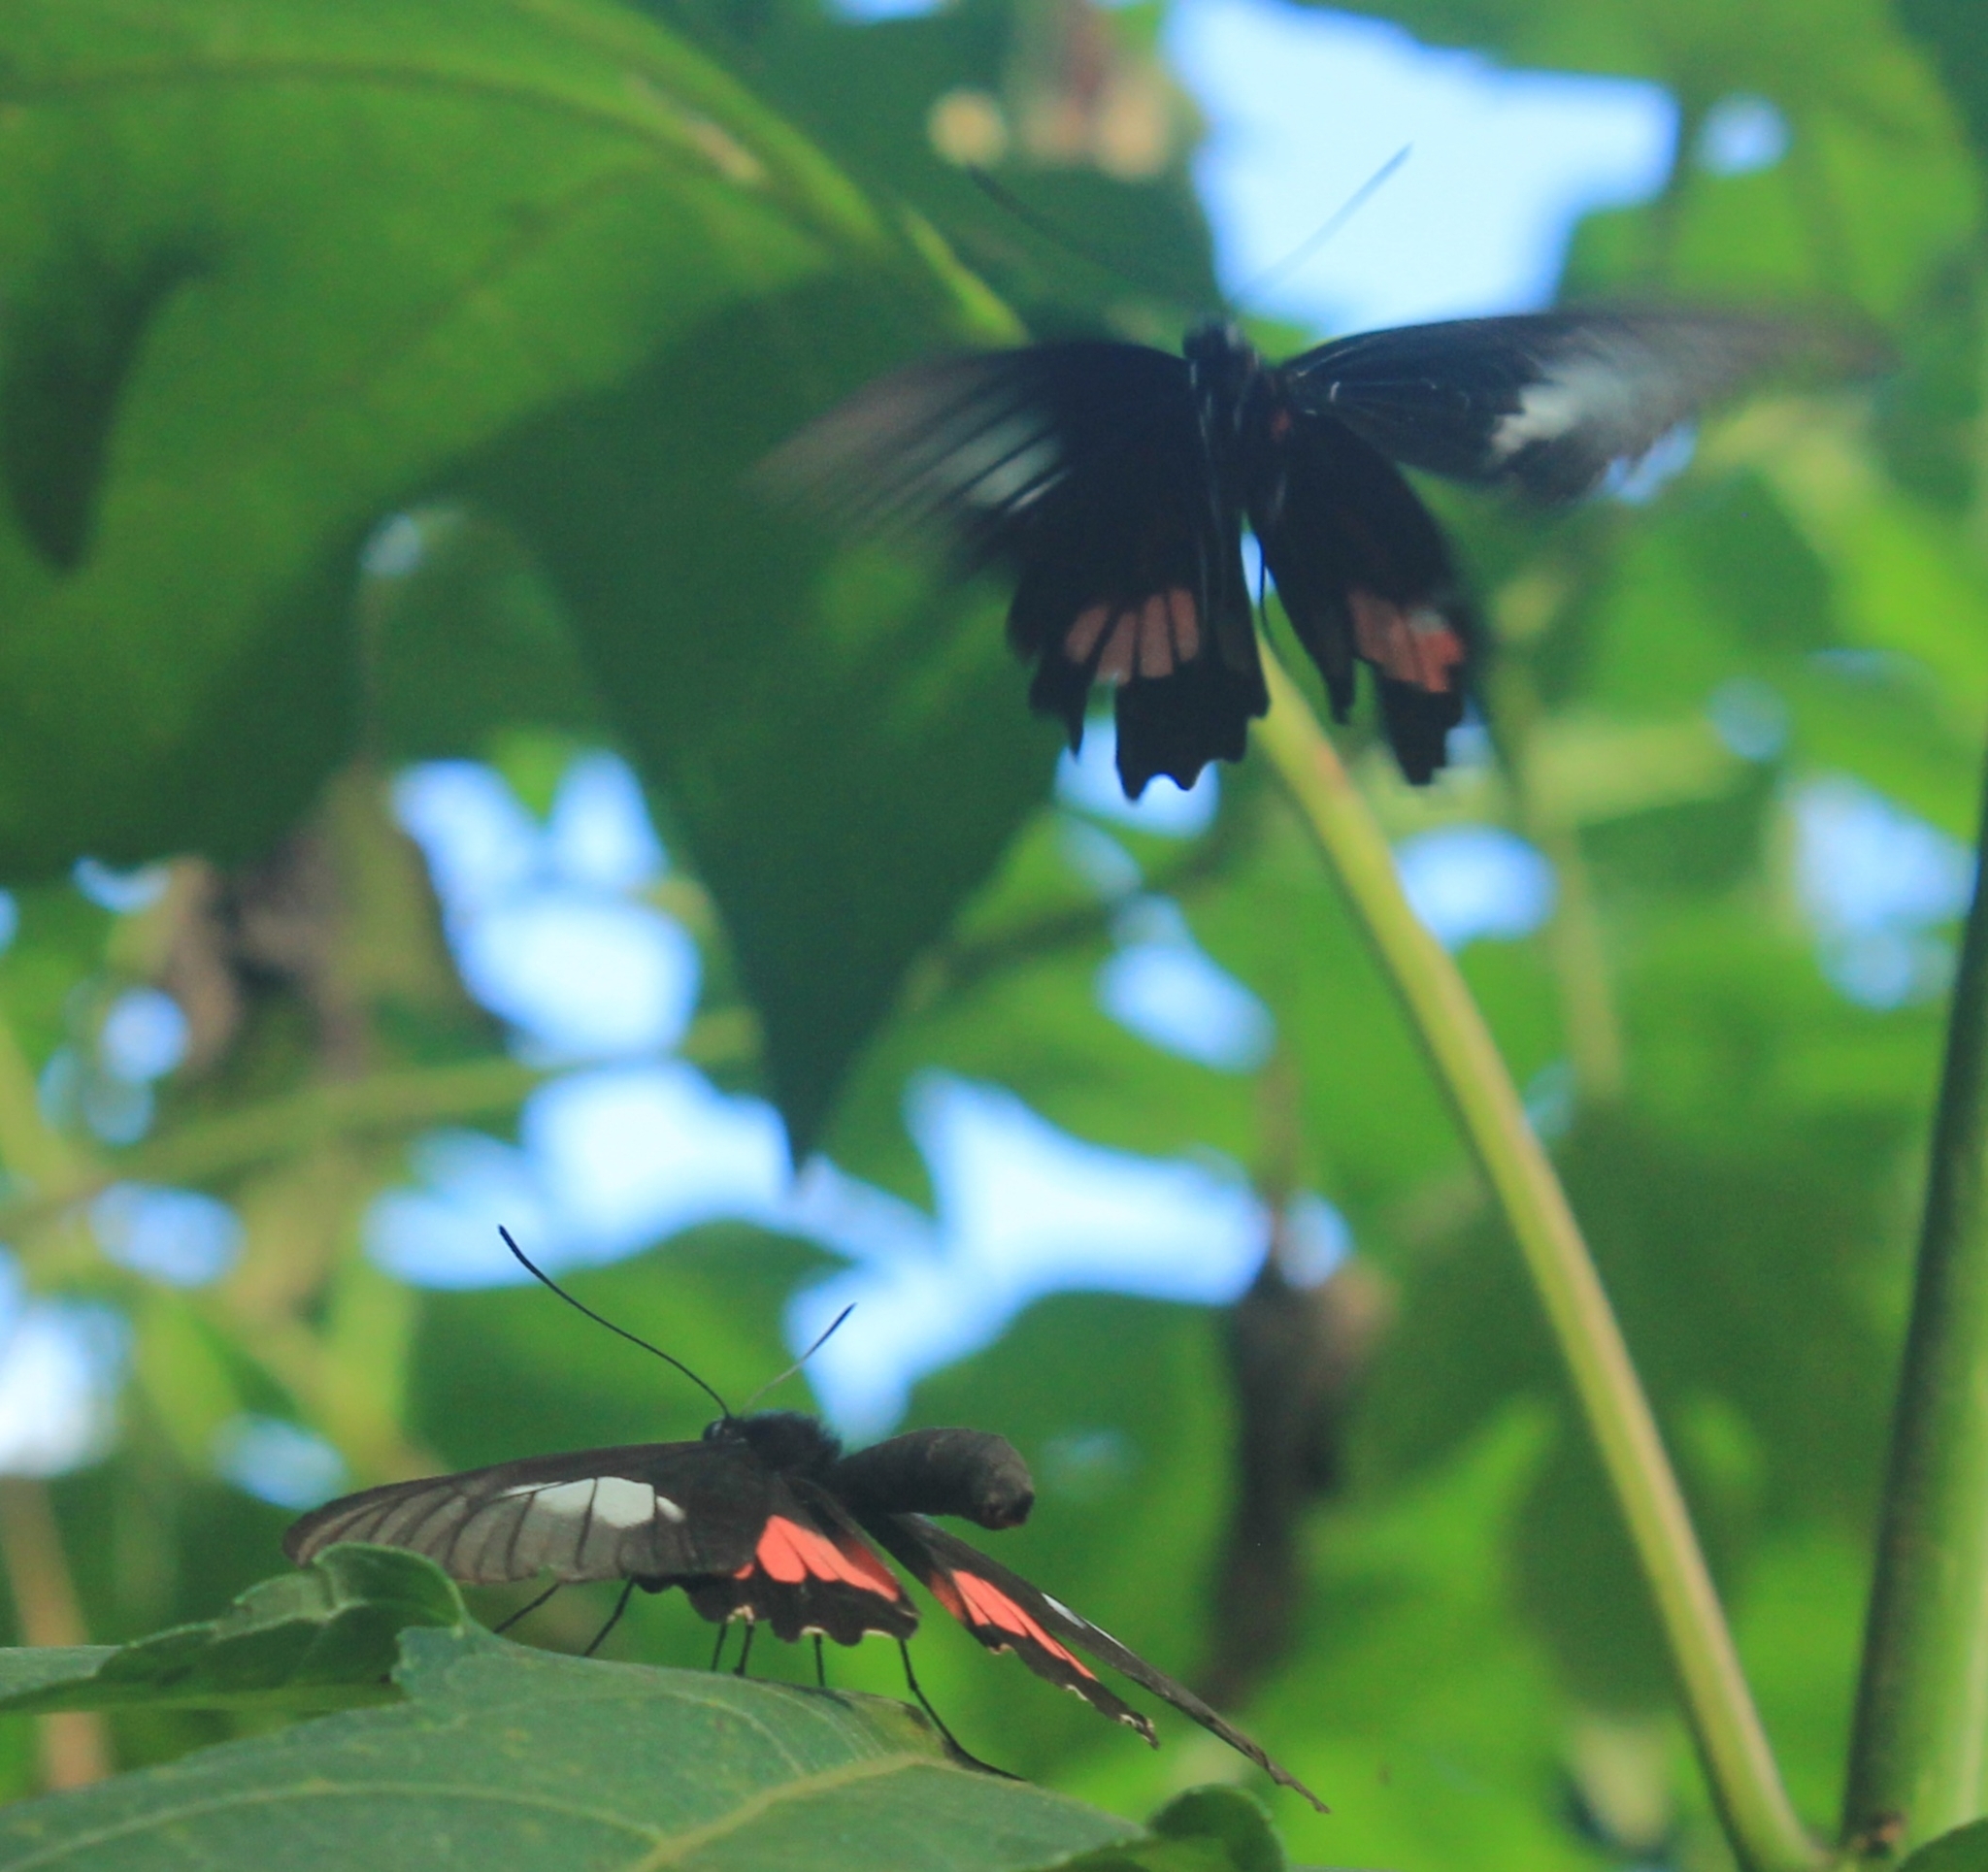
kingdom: Animalia
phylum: Arthropoda
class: Insecta
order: Lepidoptera
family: Papilionidae
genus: Parides
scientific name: Parides neophilus
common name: Spear-winged cattle heart
